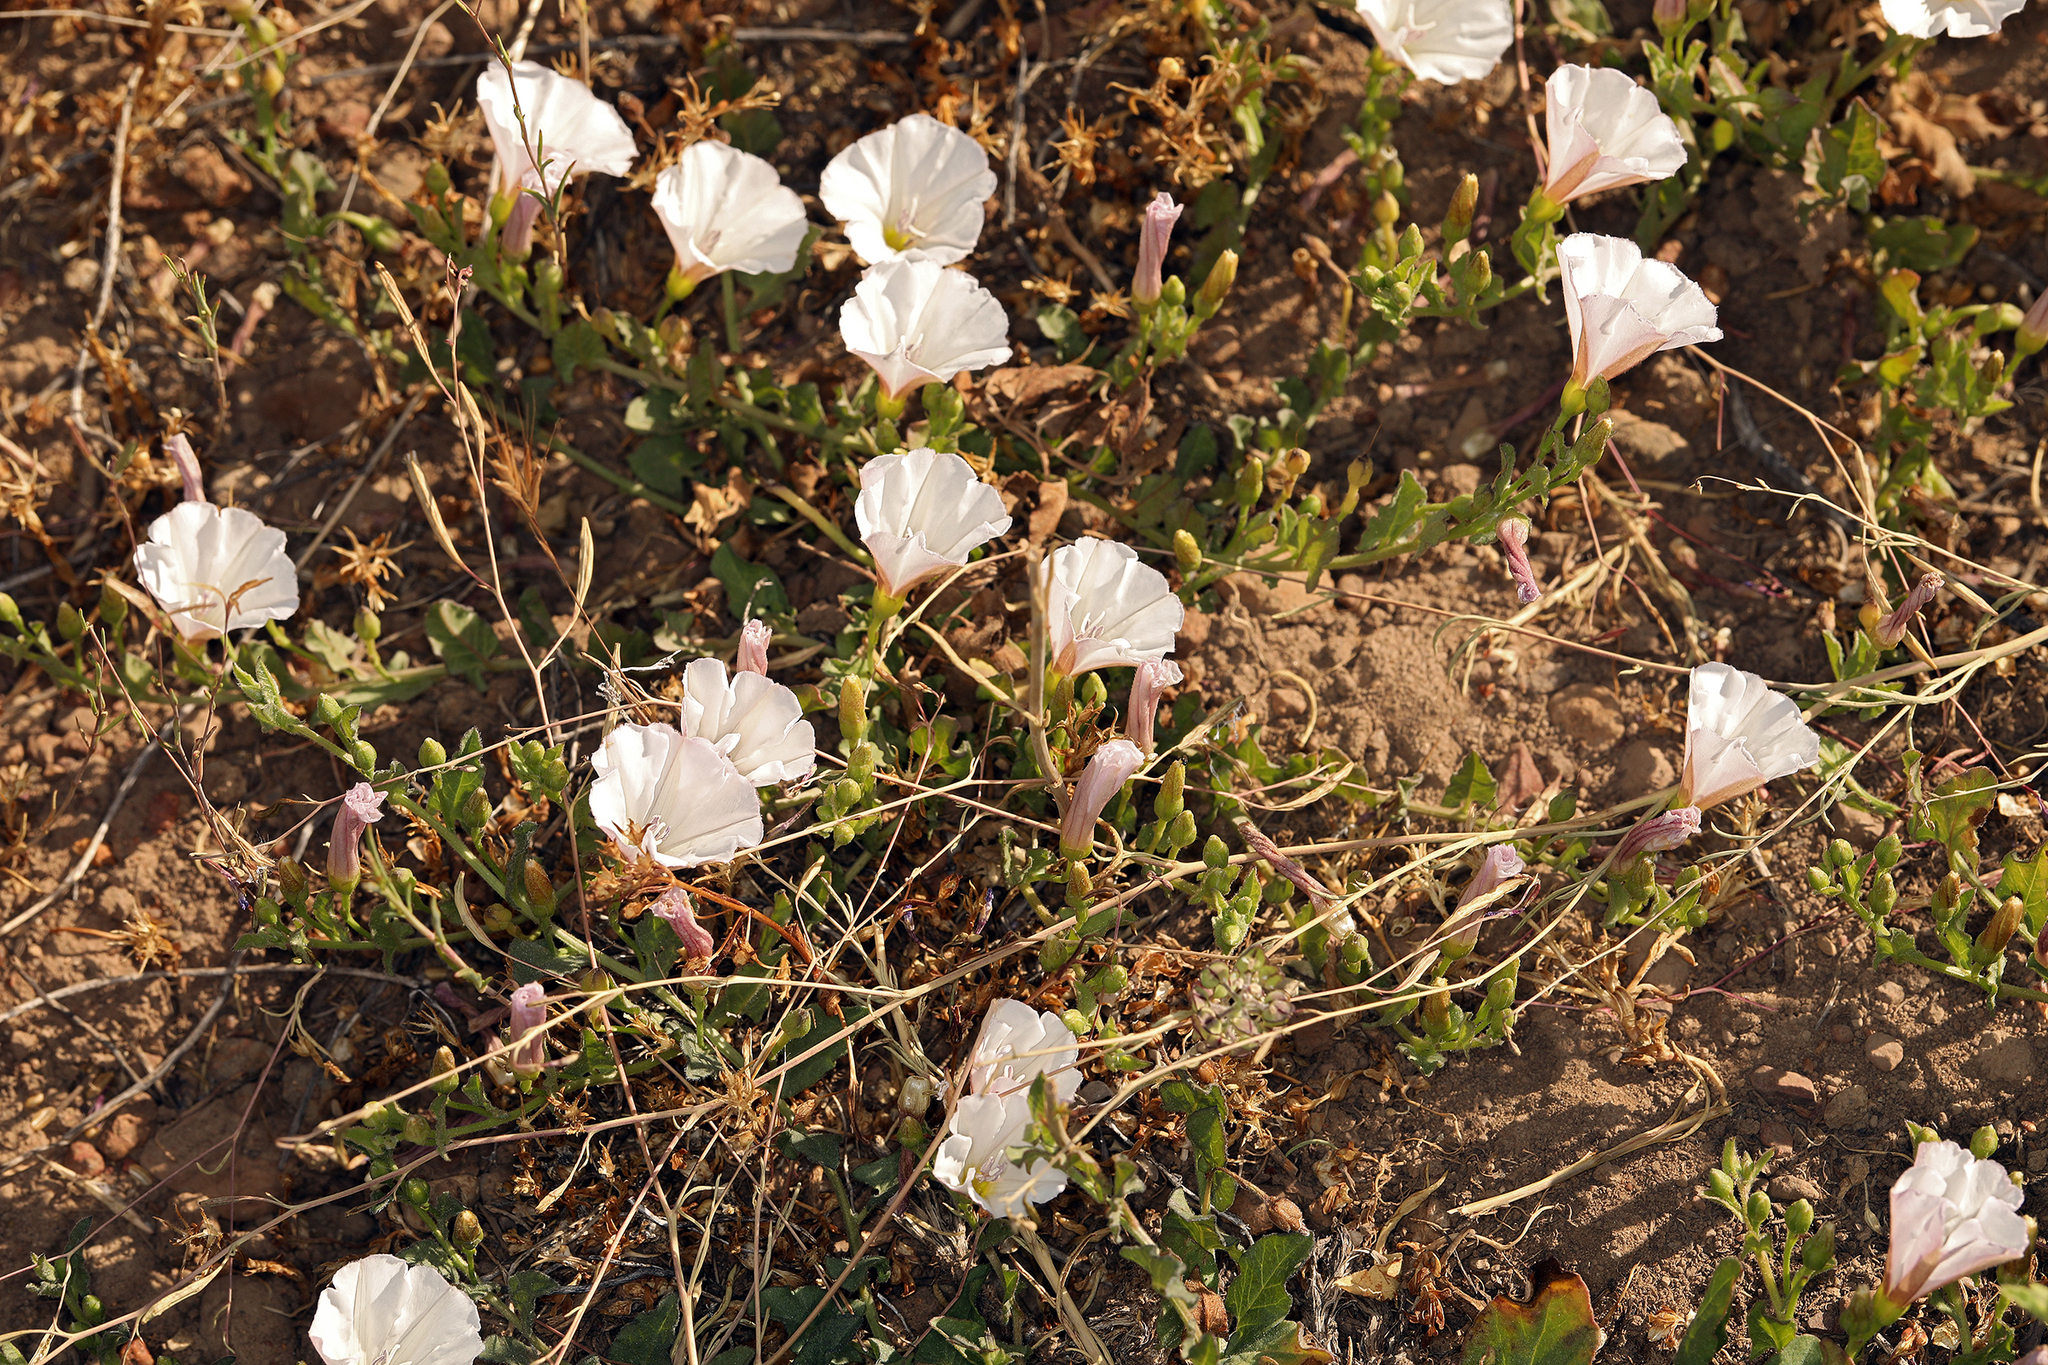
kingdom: Plantae
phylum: Tracheophyta
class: Magnoliopsida
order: Solanales
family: Convolvulaceae
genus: Convolvulus
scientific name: Convolvulus arvensis
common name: Field bindweed
